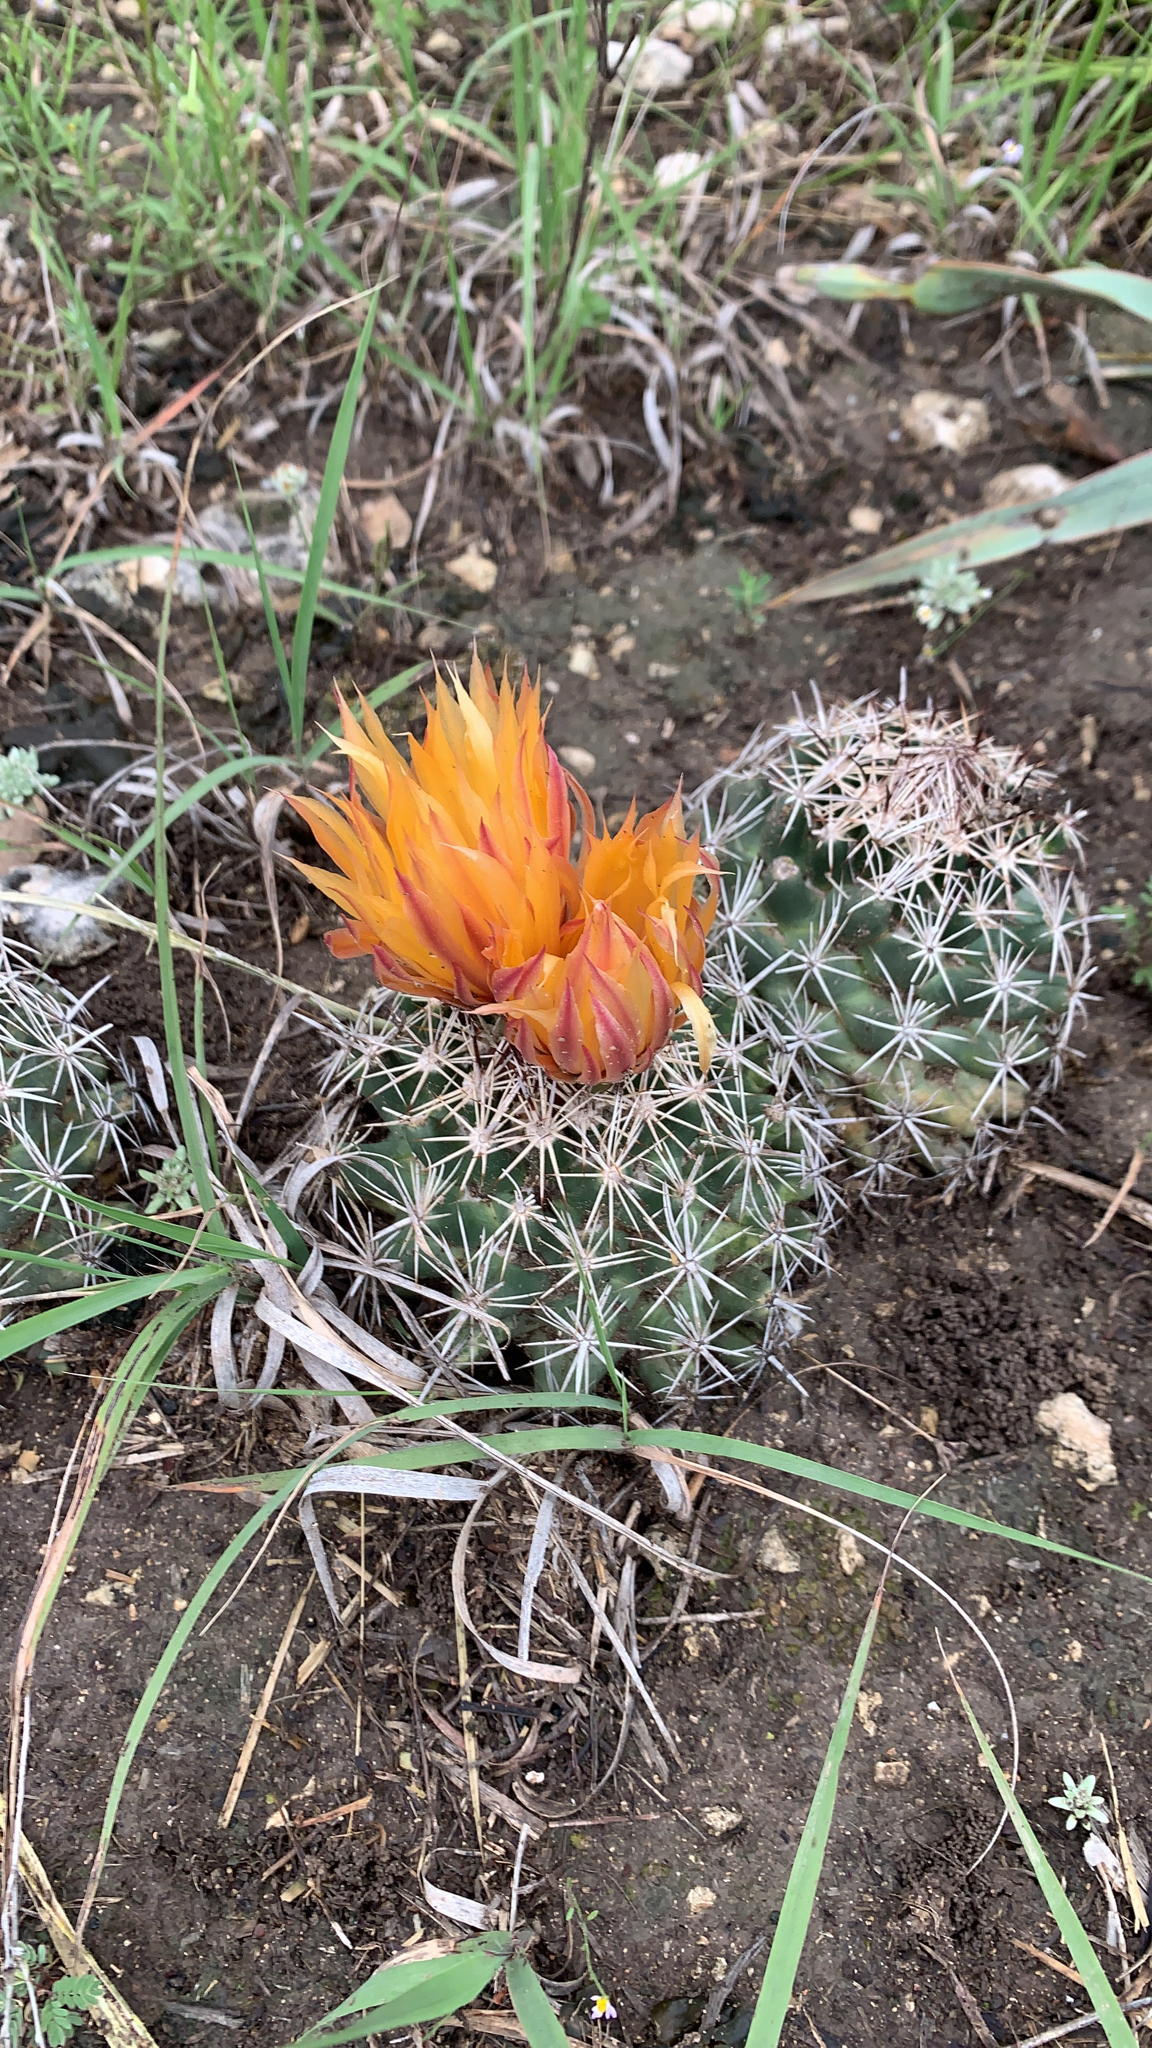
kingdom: Plantae
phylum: Tracheophyta
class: Magnoliopsida
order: Caryophyllales
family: Cactaceae
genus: Coryphantha
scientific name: Coryphantha sulcata
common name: Finger cactus
